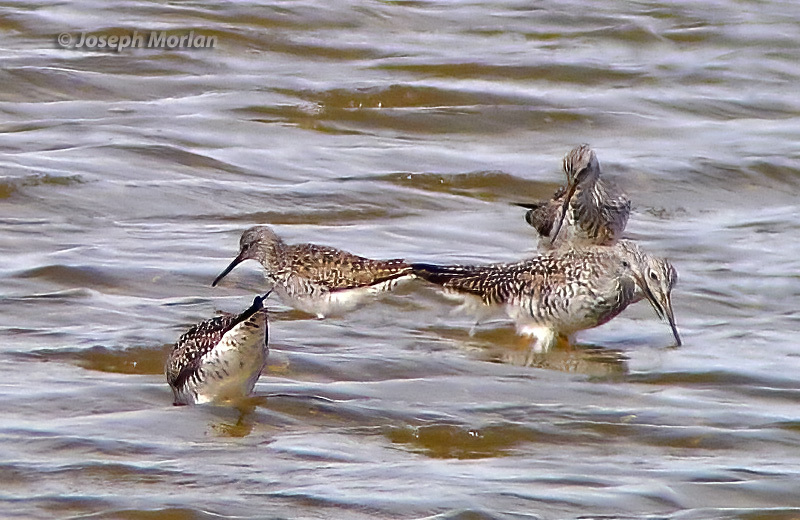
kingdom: Animalia
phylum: Chordata
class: Aves
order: Charadriiformes
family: Scolopacidae
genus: Tringa
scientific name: Tringa flavipes
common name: Lesser yellowlegs
